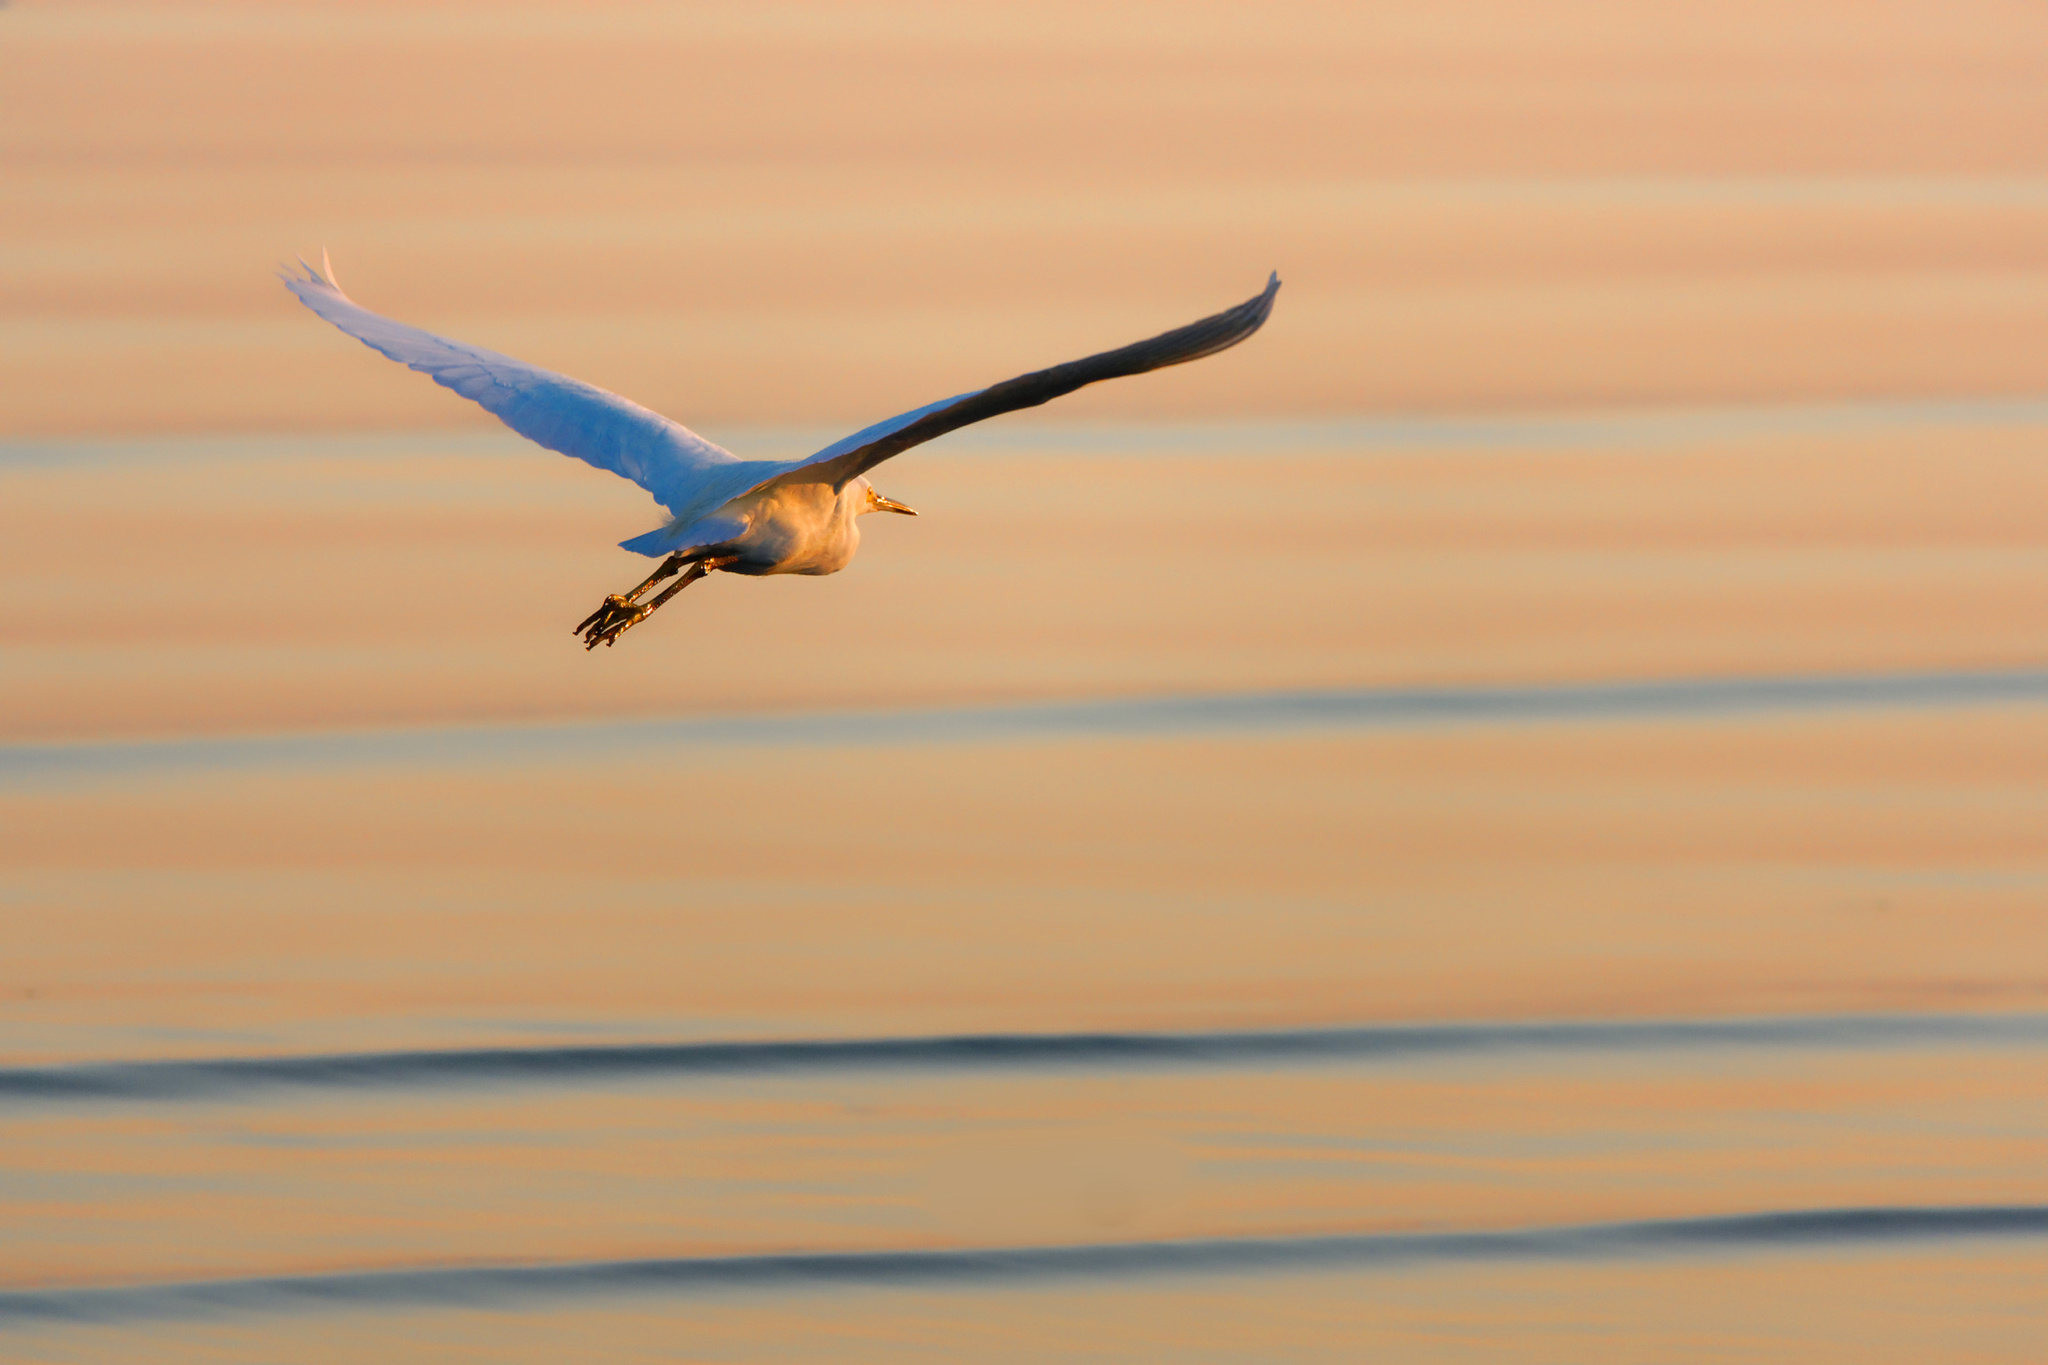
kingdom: Animalia
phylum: Chordata
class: Aves
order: Pelecaniformes
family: Ardeidae
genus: Egretta
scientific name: Egretta thula
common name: Snowy egret
